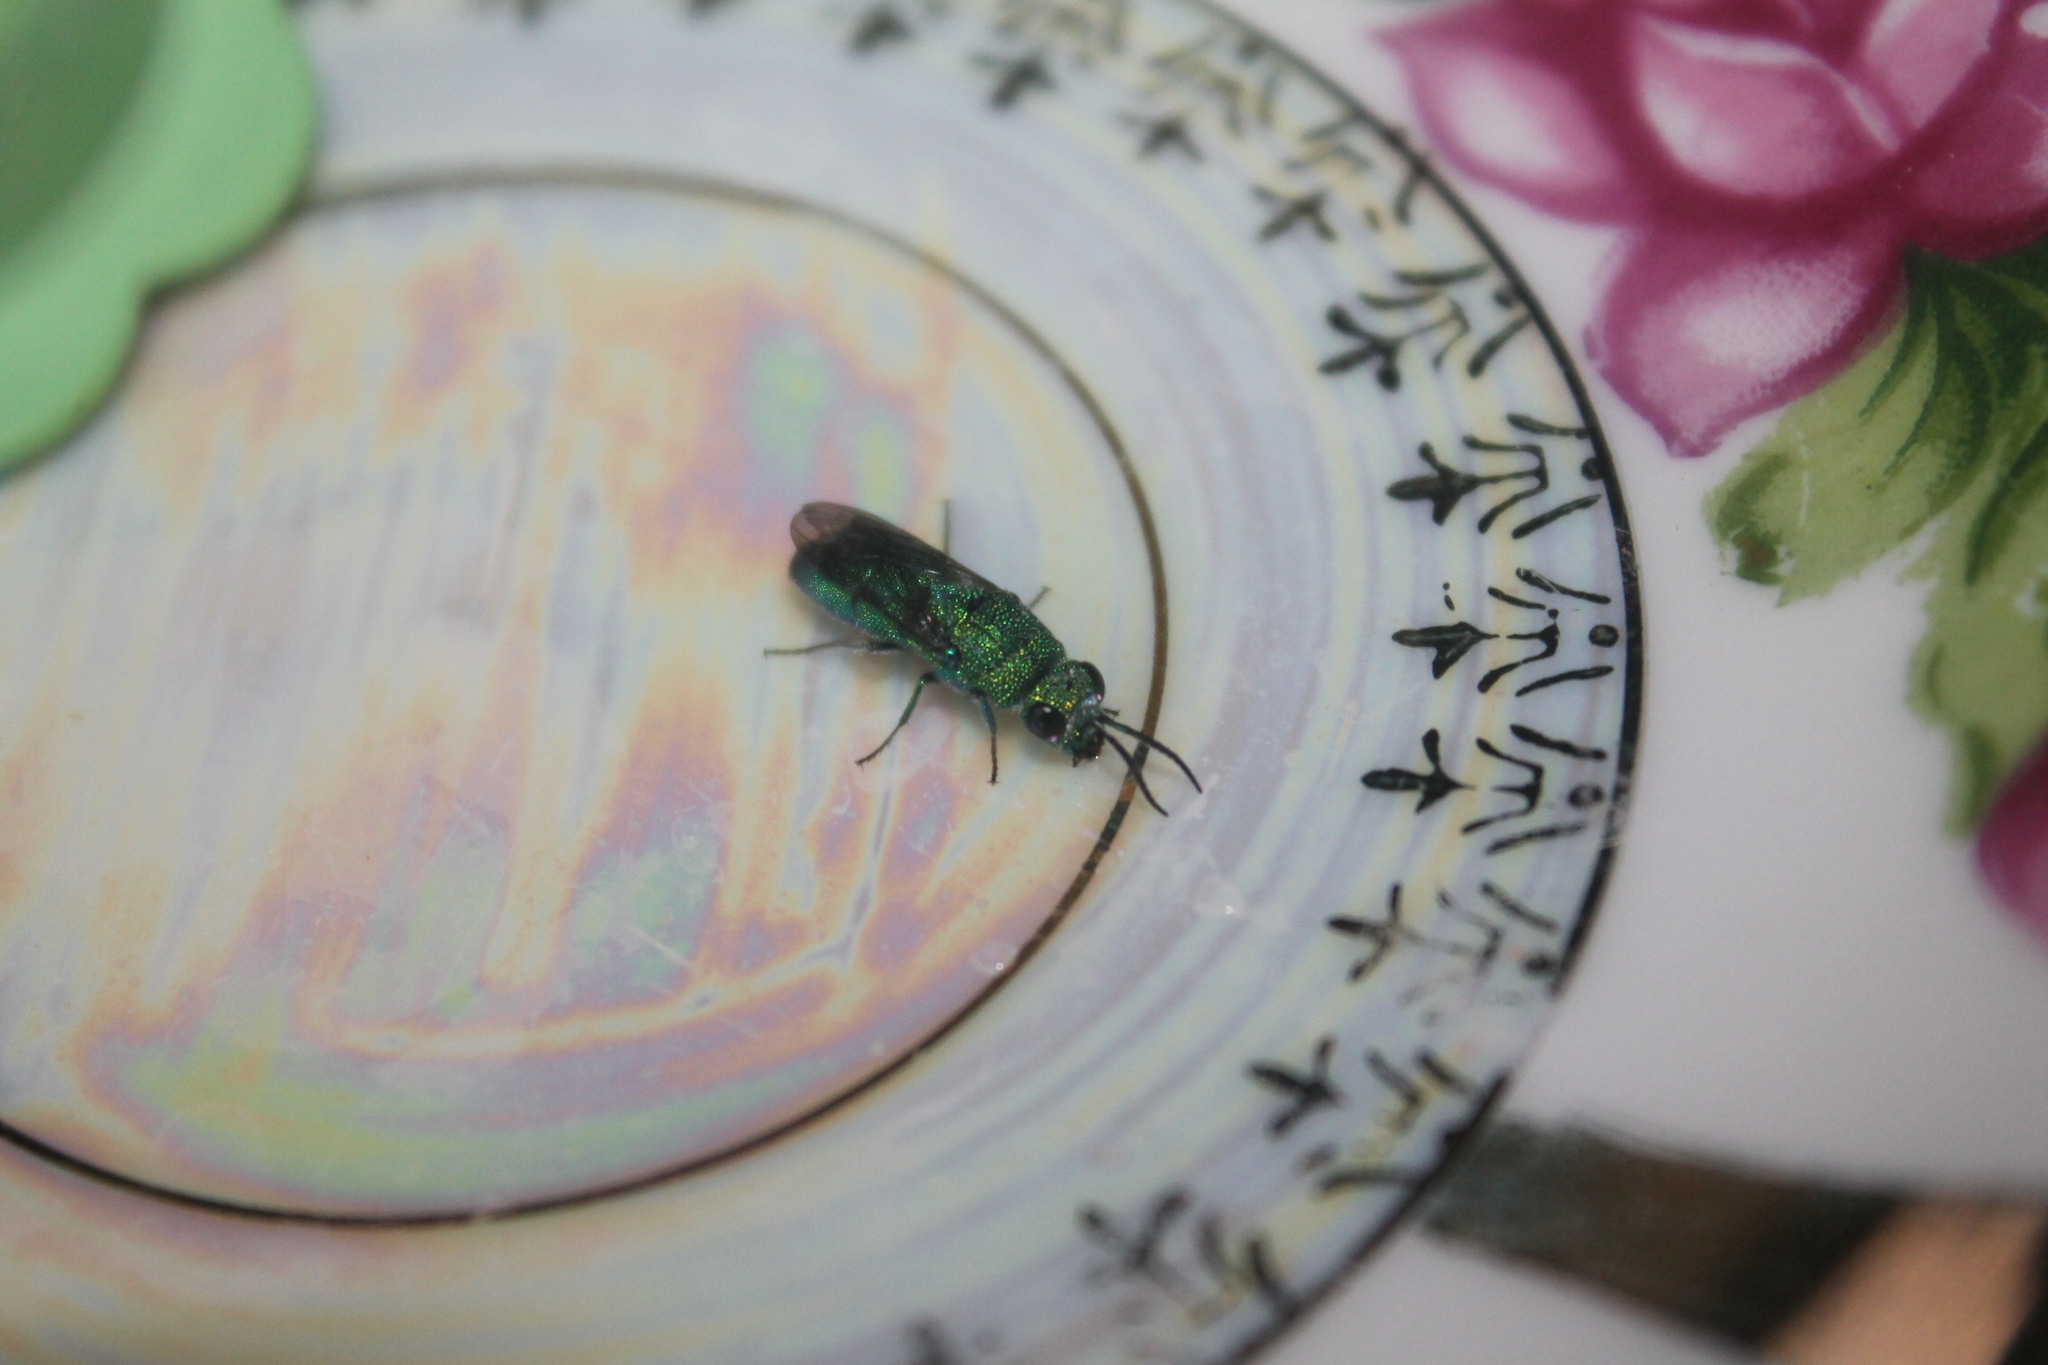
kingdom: Animalia
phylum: Arthropoda
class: Insecta
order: Hymenoptera
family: Chrysididae
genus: Chrysis
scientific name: Chrysis angolensis
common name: Cuckoo wasp
